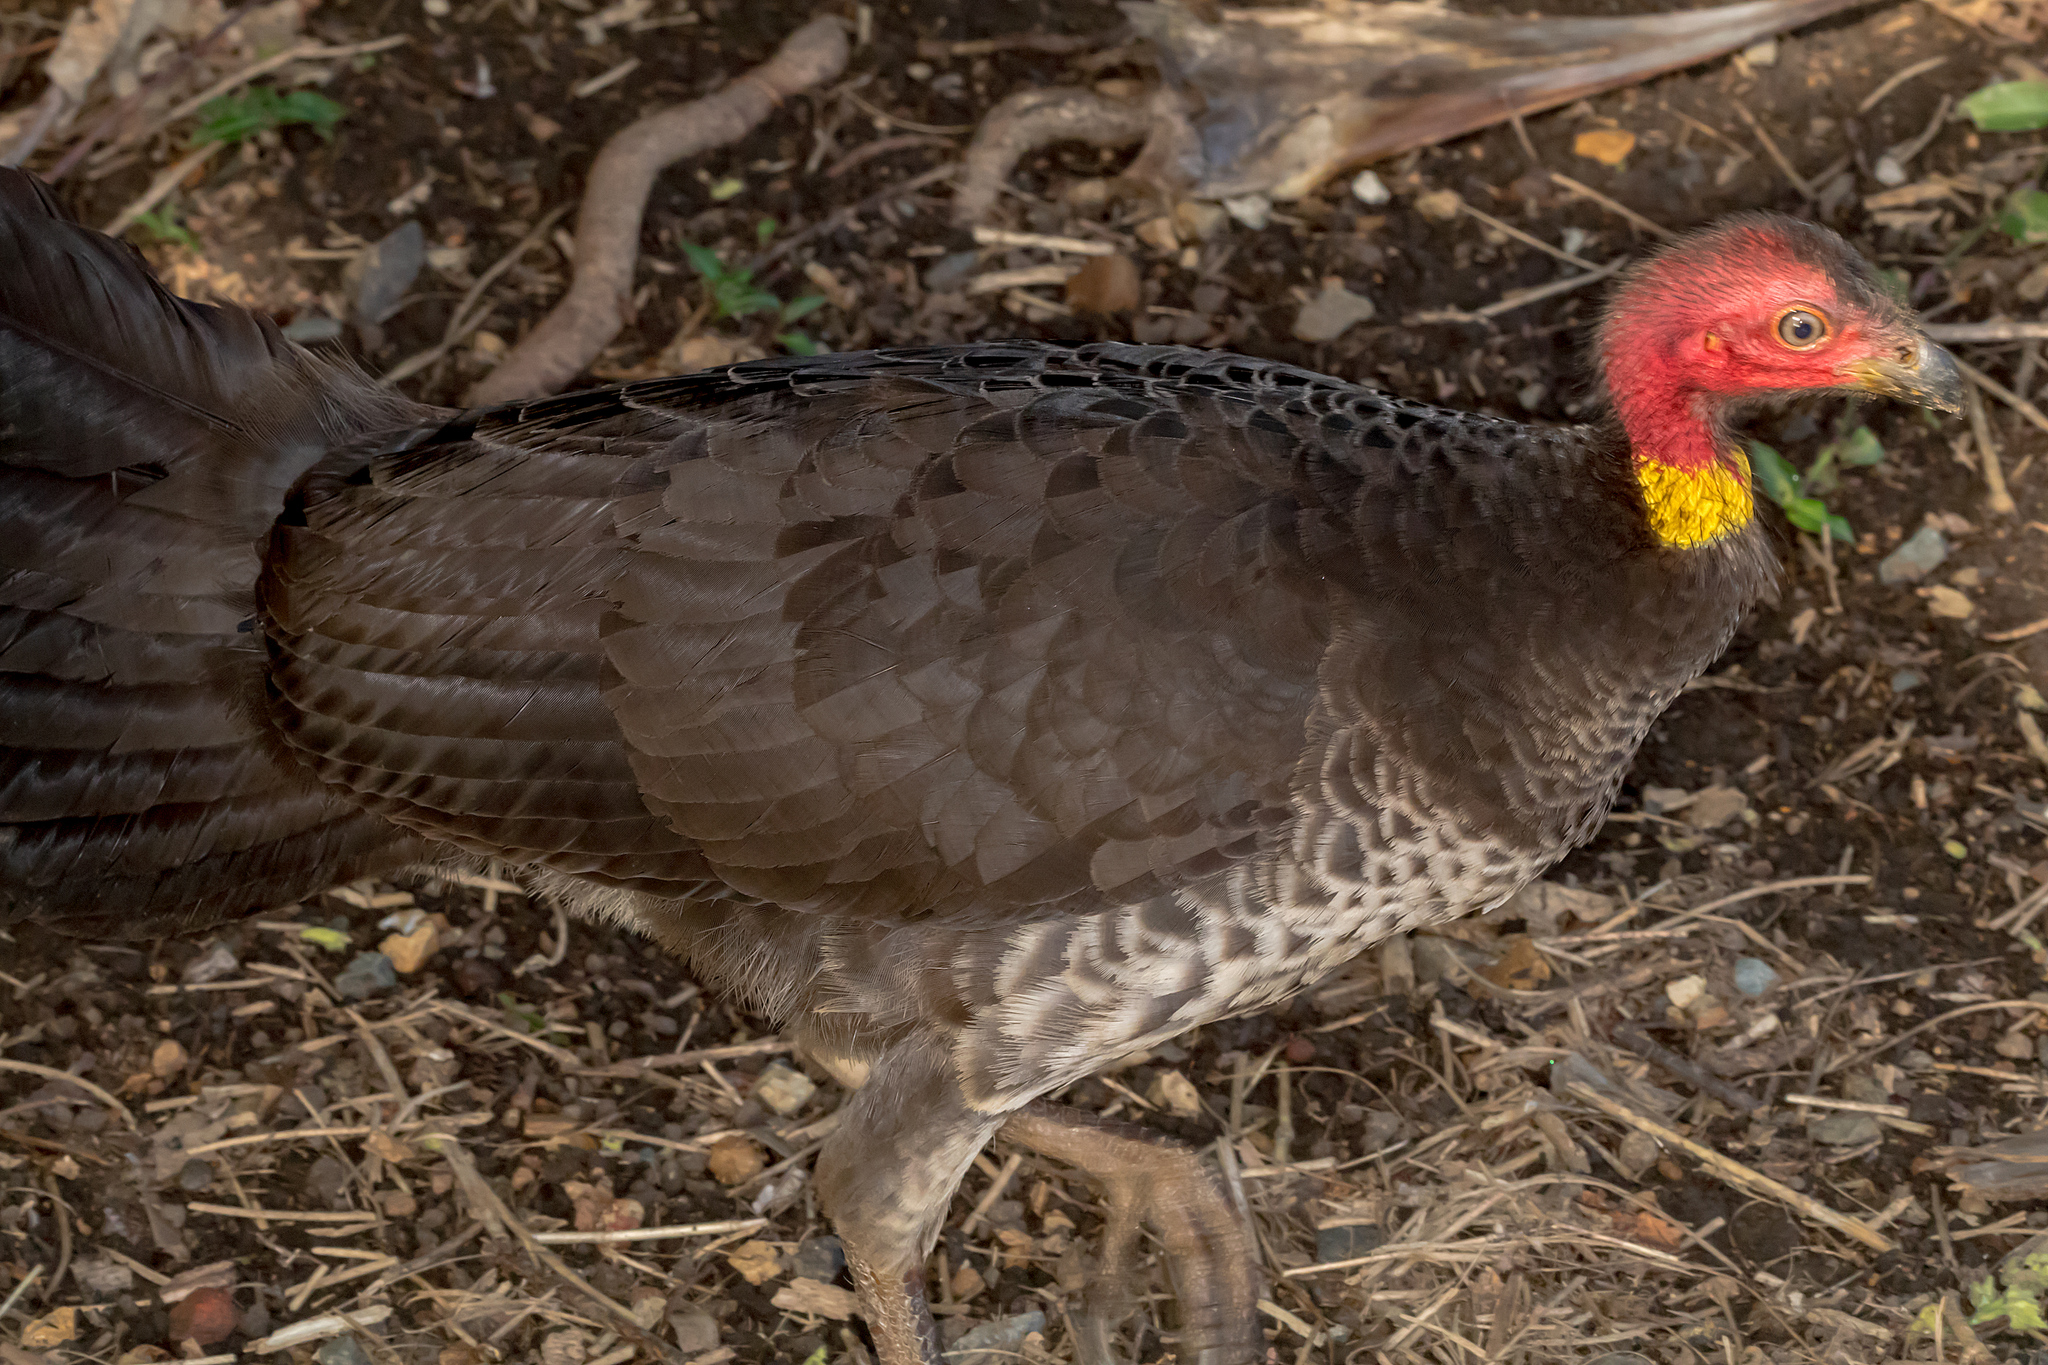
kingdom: Animalia
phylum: Chordata
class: Aves
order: Galliformes
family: Megapodiidae
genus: Alectura
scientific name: Alectura lathami
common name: Australian brushturkey
